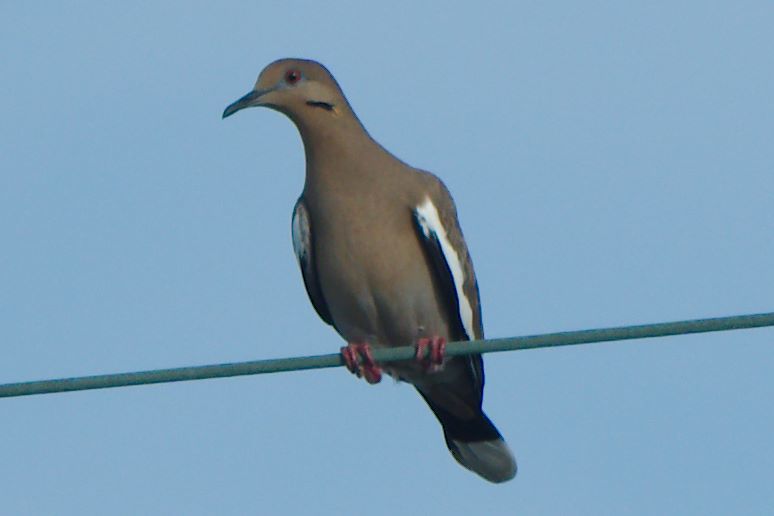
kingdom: Animalia
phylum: Chordata
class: Aves
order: Columbiformes
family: Columbidae
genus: Zenaida
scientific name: Zenaida asiatica
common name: White-winged dove
